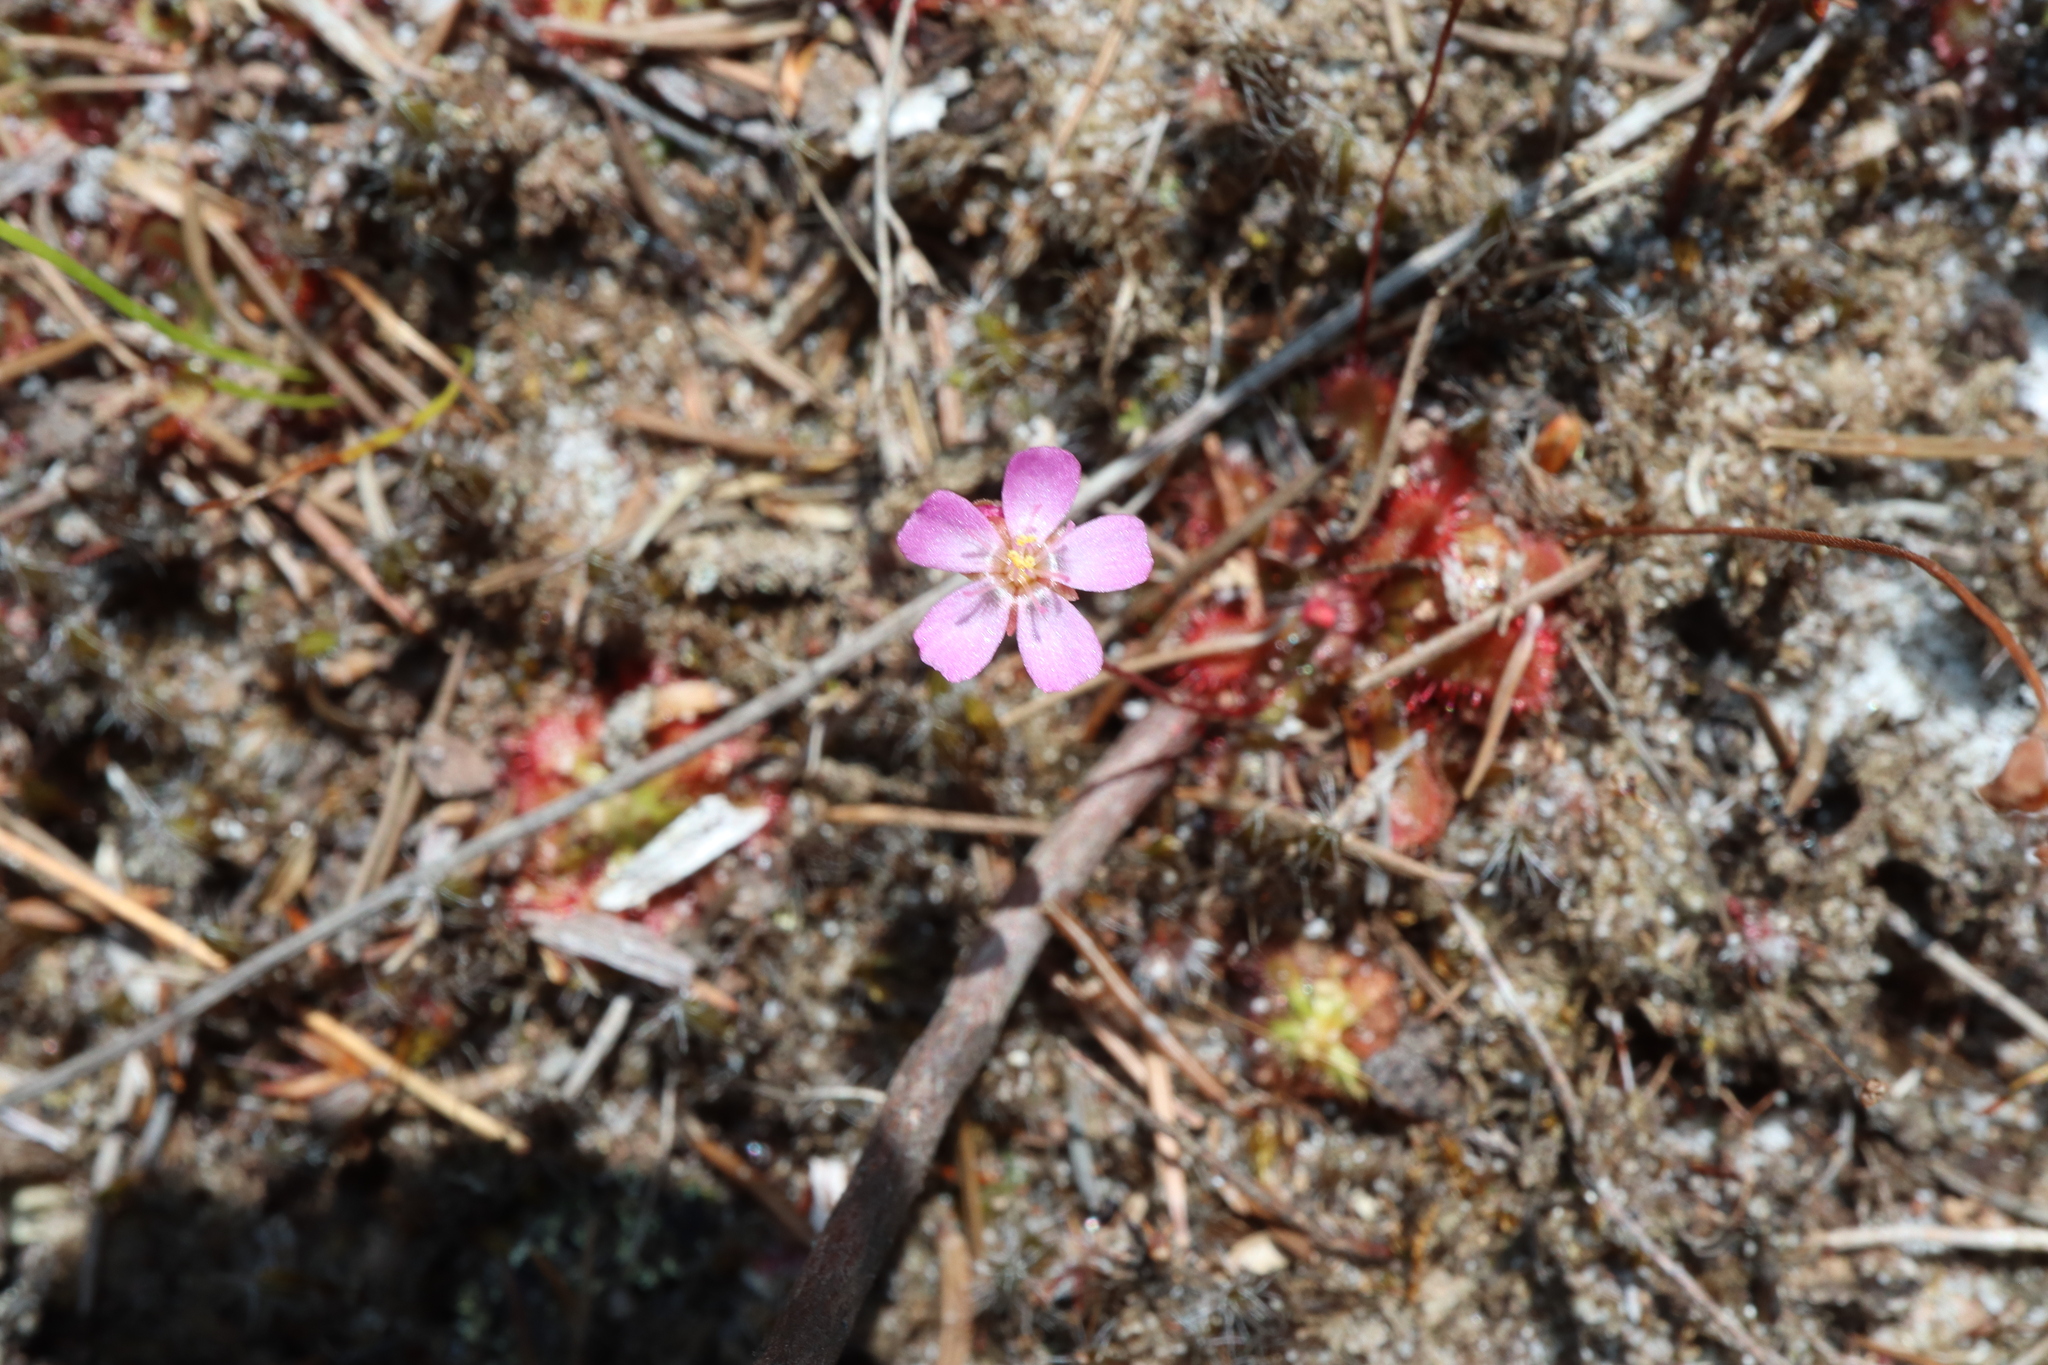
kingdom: Plantae
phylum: Tracheophyta
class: Magnoliopsida
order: Caryophyllales
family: Droseraceae
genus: Drosera
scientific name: Drosera spatulata
